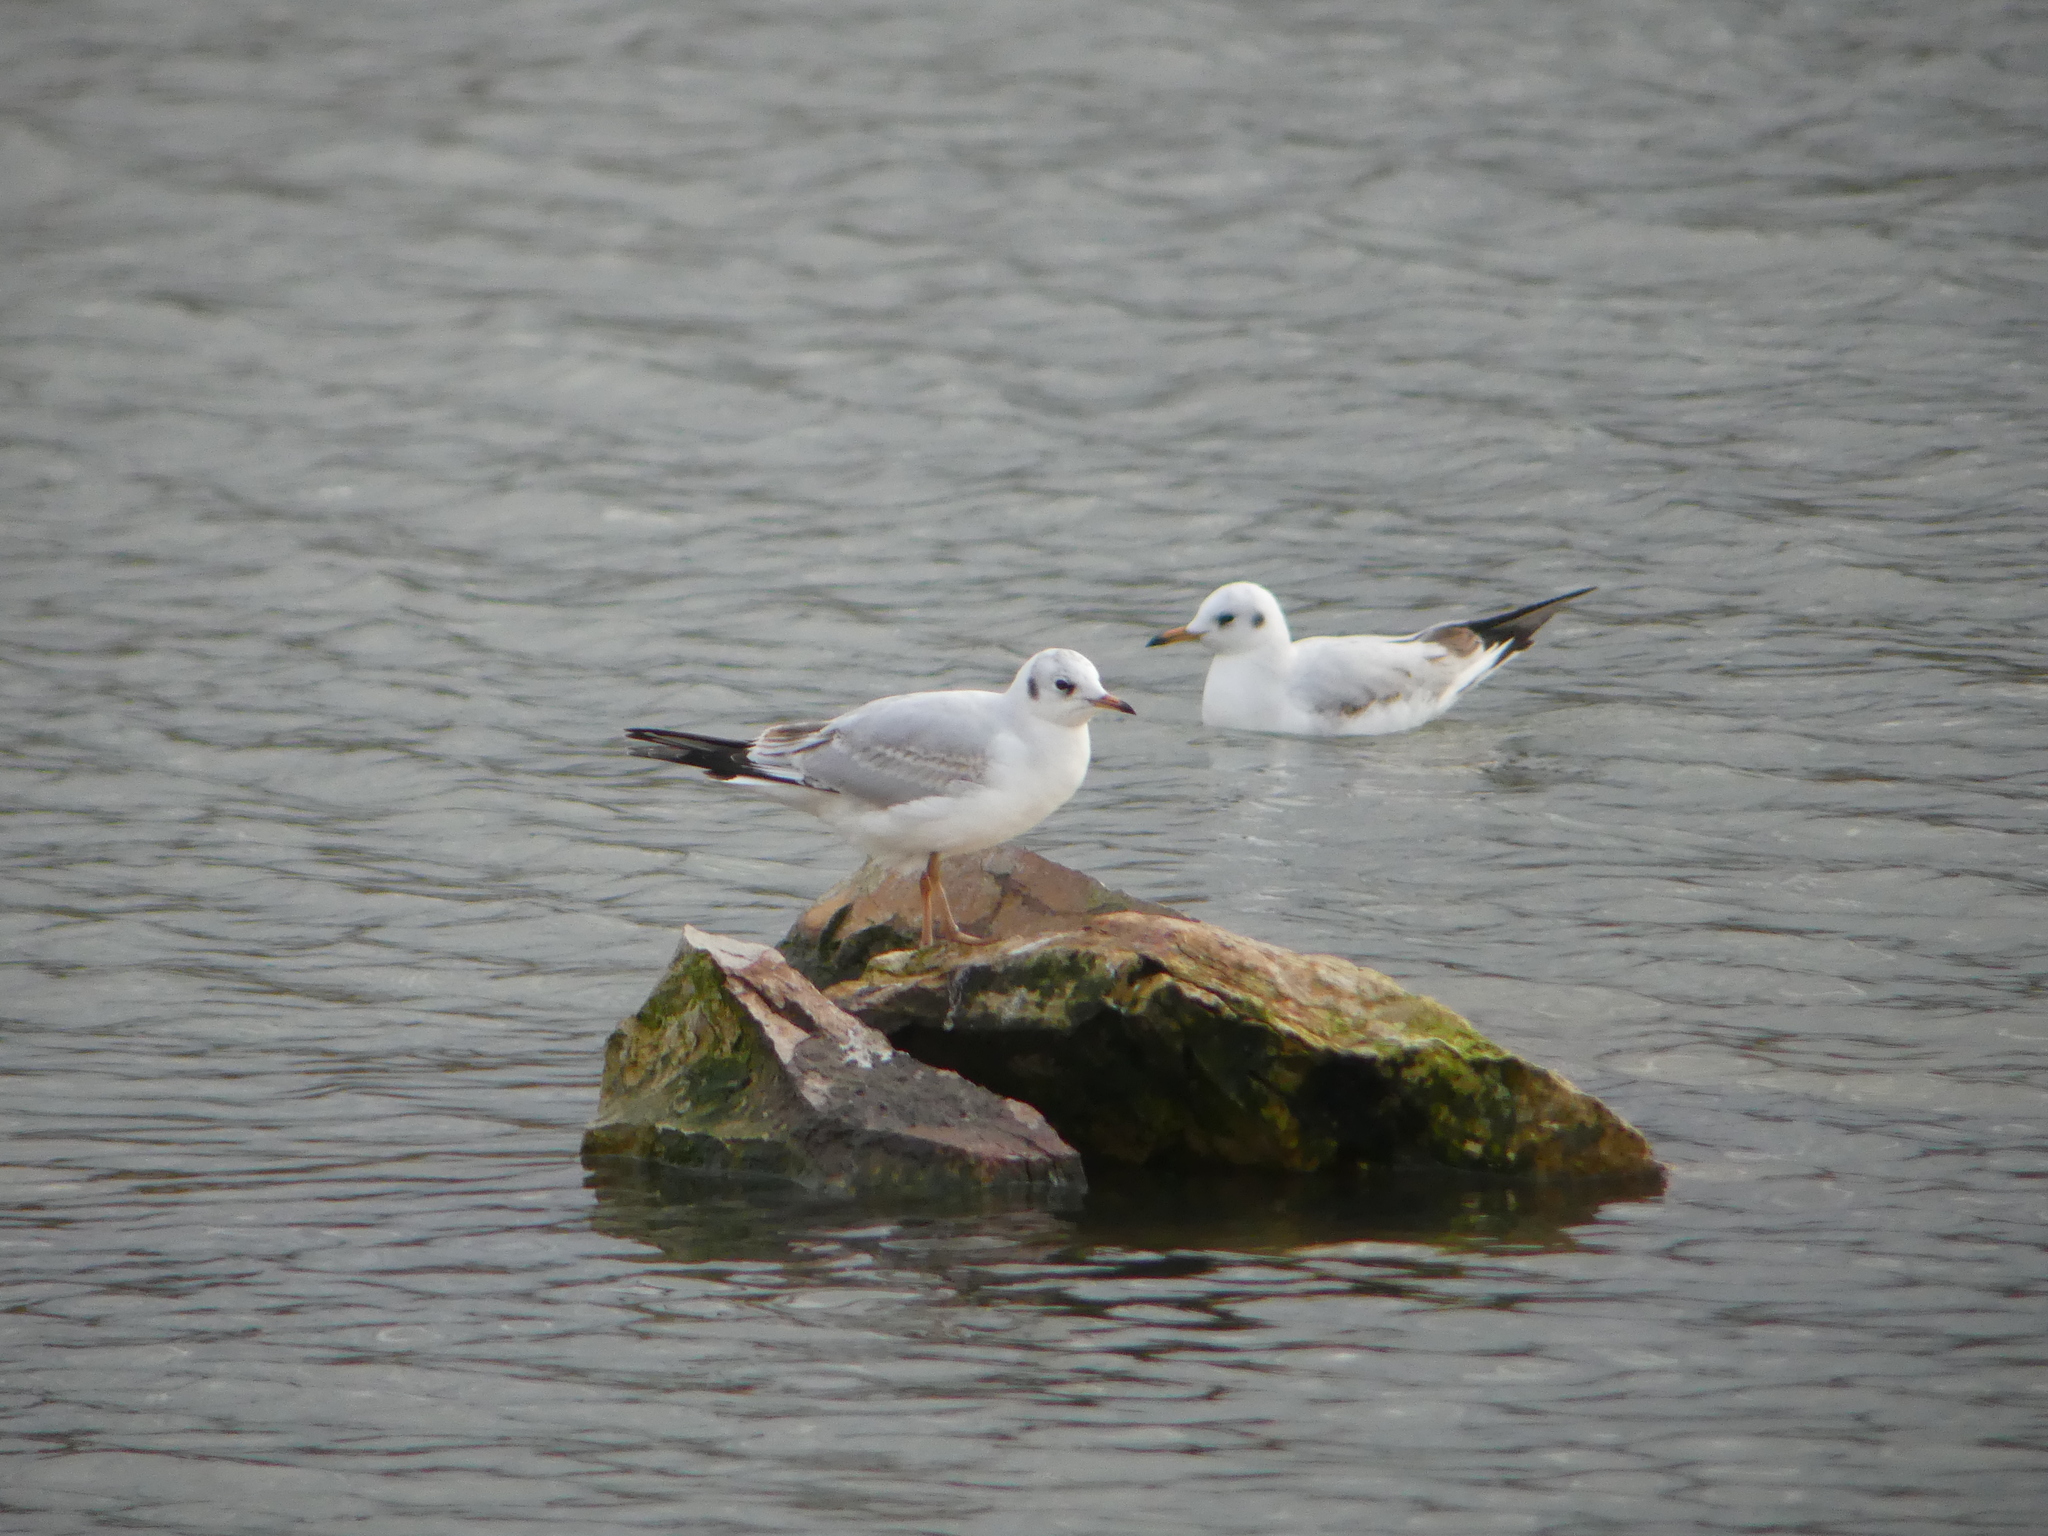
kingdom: Animalia
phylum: Chordata
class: Aves
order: Charadriiformes
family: Laridae
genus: Chroicocephalus
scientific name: Chroicocephalus ridibundus
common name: Black-headed gull
